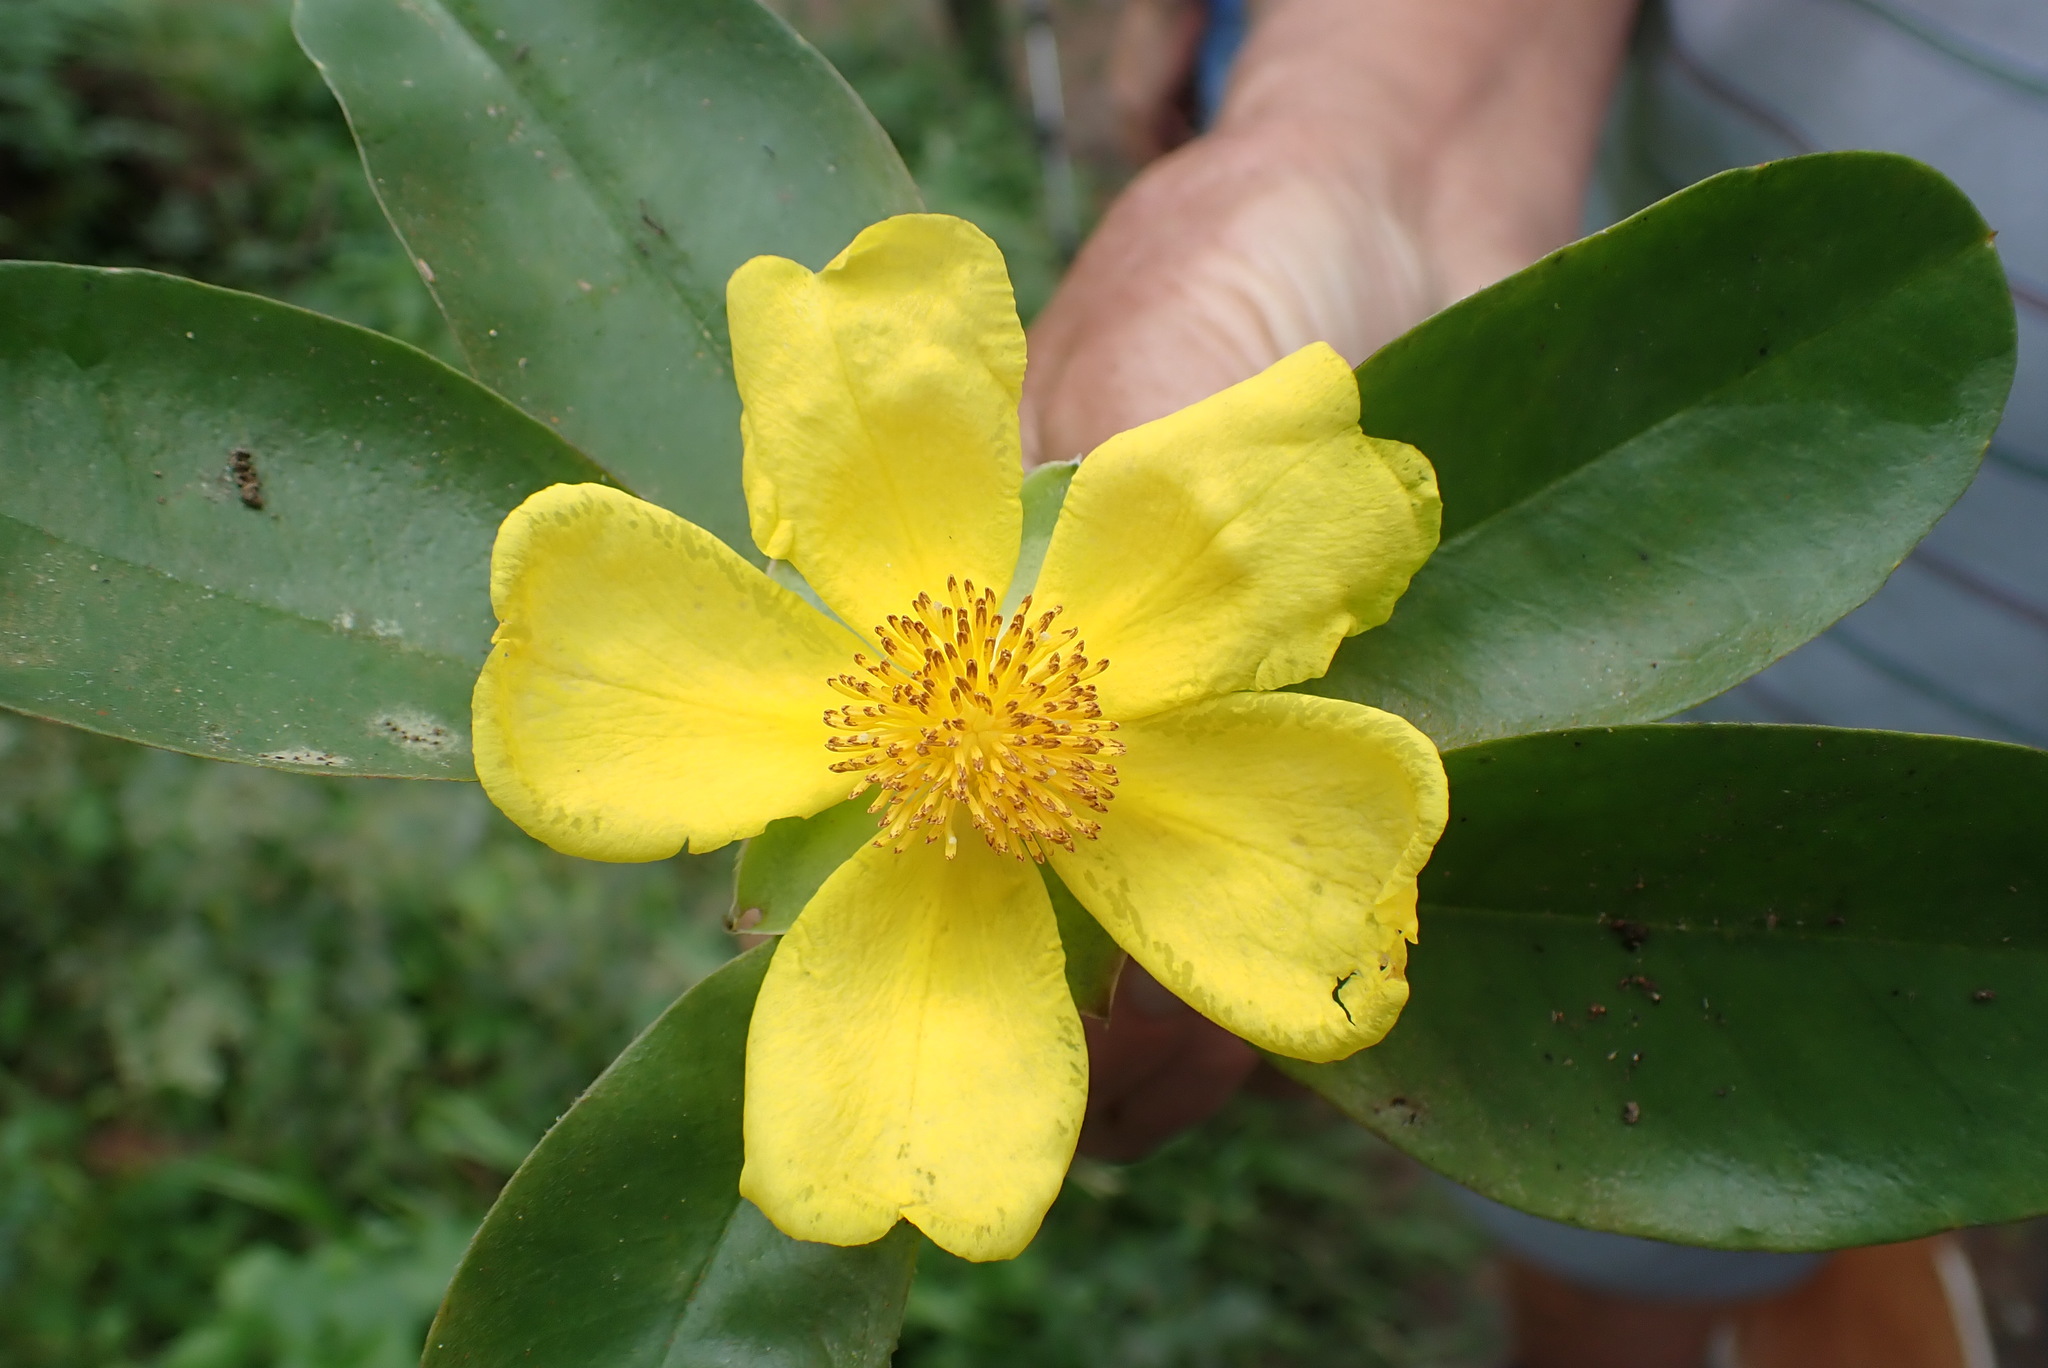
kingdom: Plantae
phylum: Tracheophyta
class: Magnoliopsida
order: Dilleniales
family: Dilleniaceae
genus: Hibbertia
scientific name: Hibbertia scandens
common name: Climbing guinea-flower
